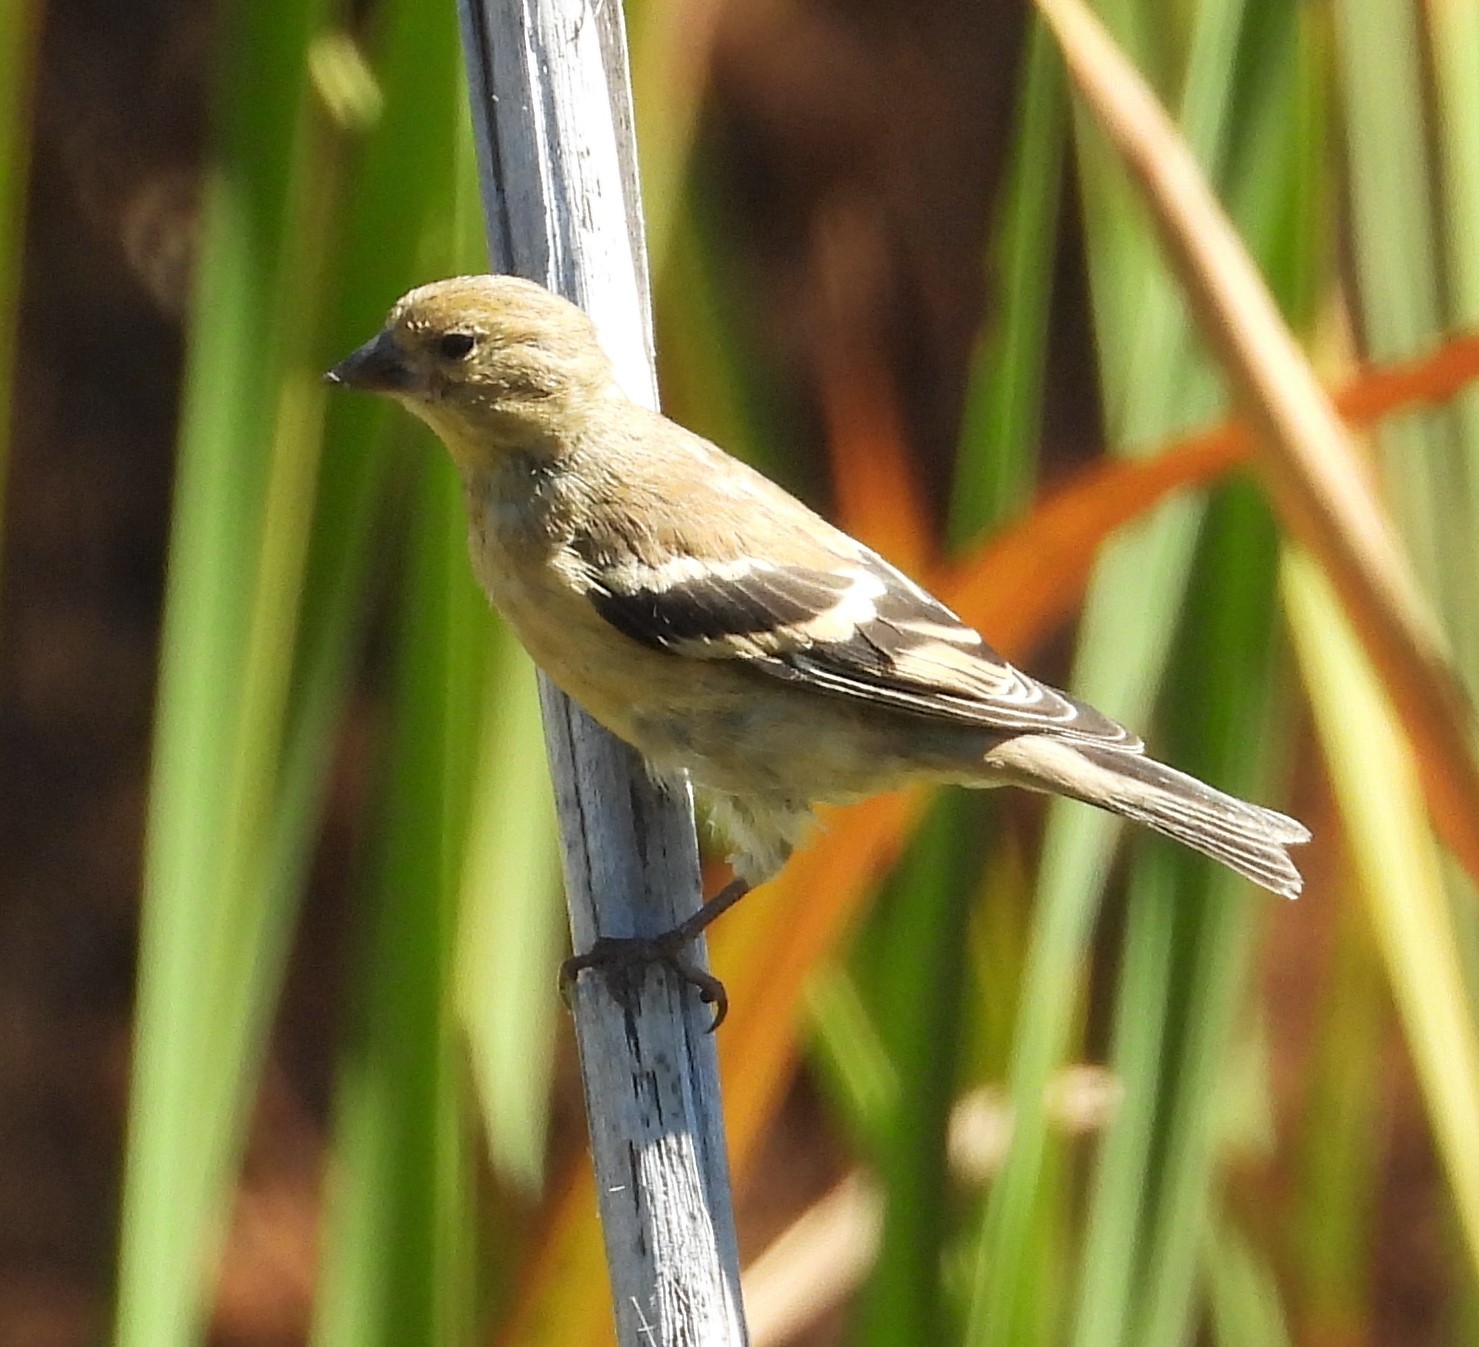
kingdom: Animalia
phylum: Chordata
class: Aves
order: Passeriformes
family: Fringillidae
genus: Spinus
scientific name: Spinus tristis
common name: American goldfinch
